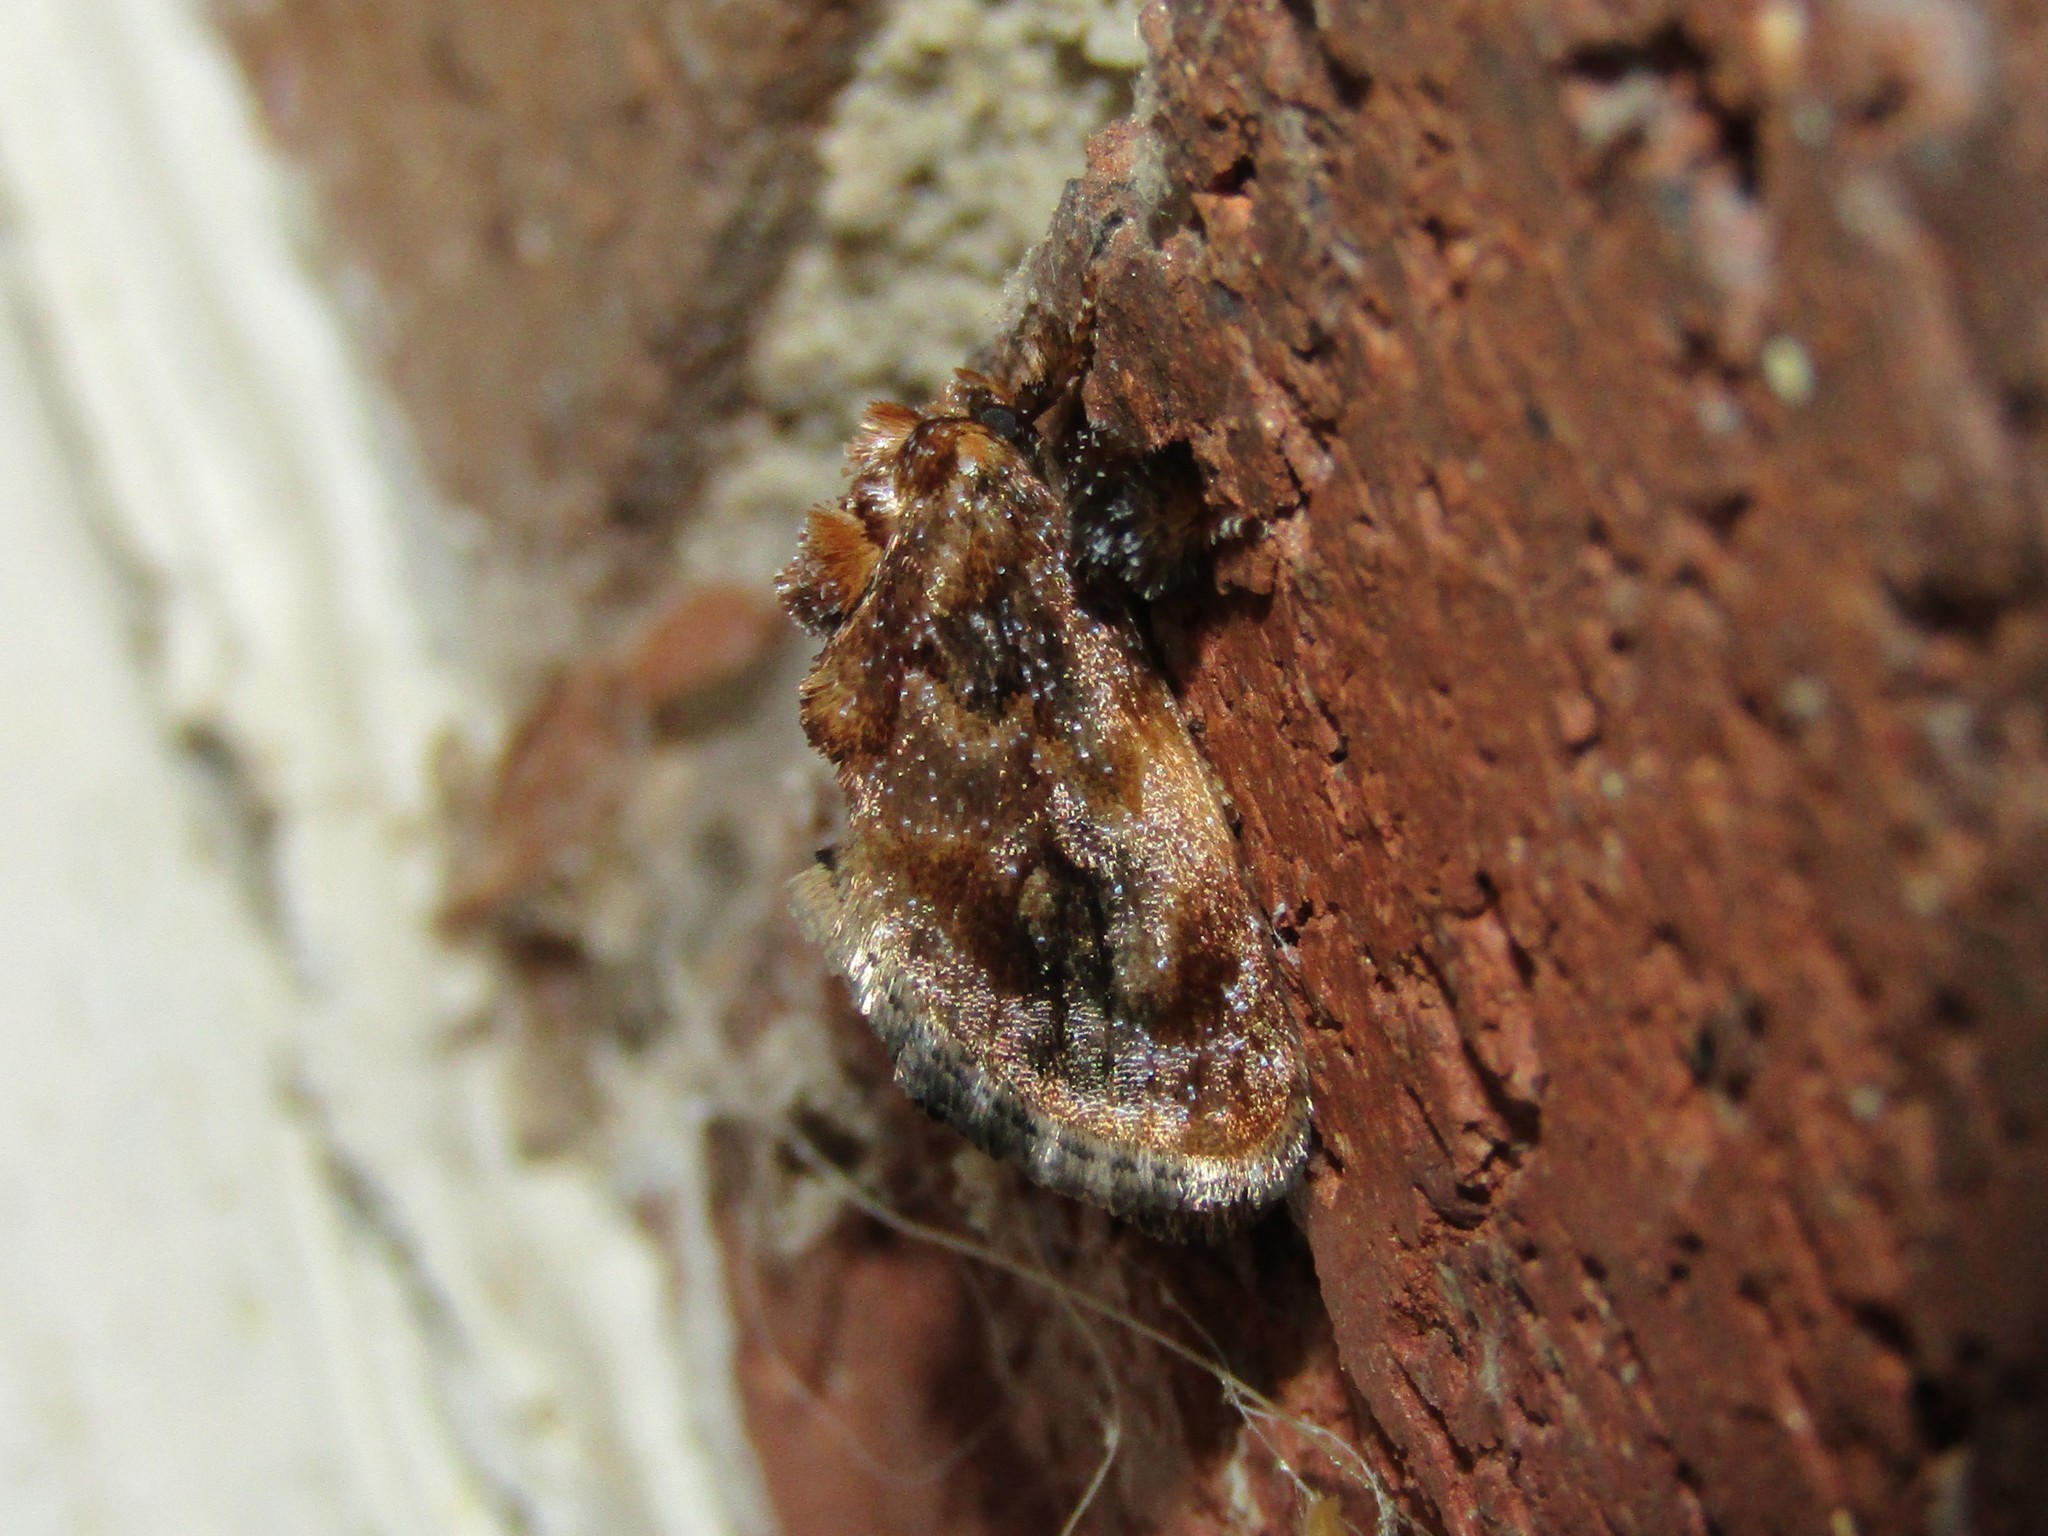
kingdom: Animalia
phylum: Arthropoda
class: Insecta
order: Lepidoptera
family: Limacodidae
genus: Isochaetes
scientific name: Isochaetes beutenmuelleri
